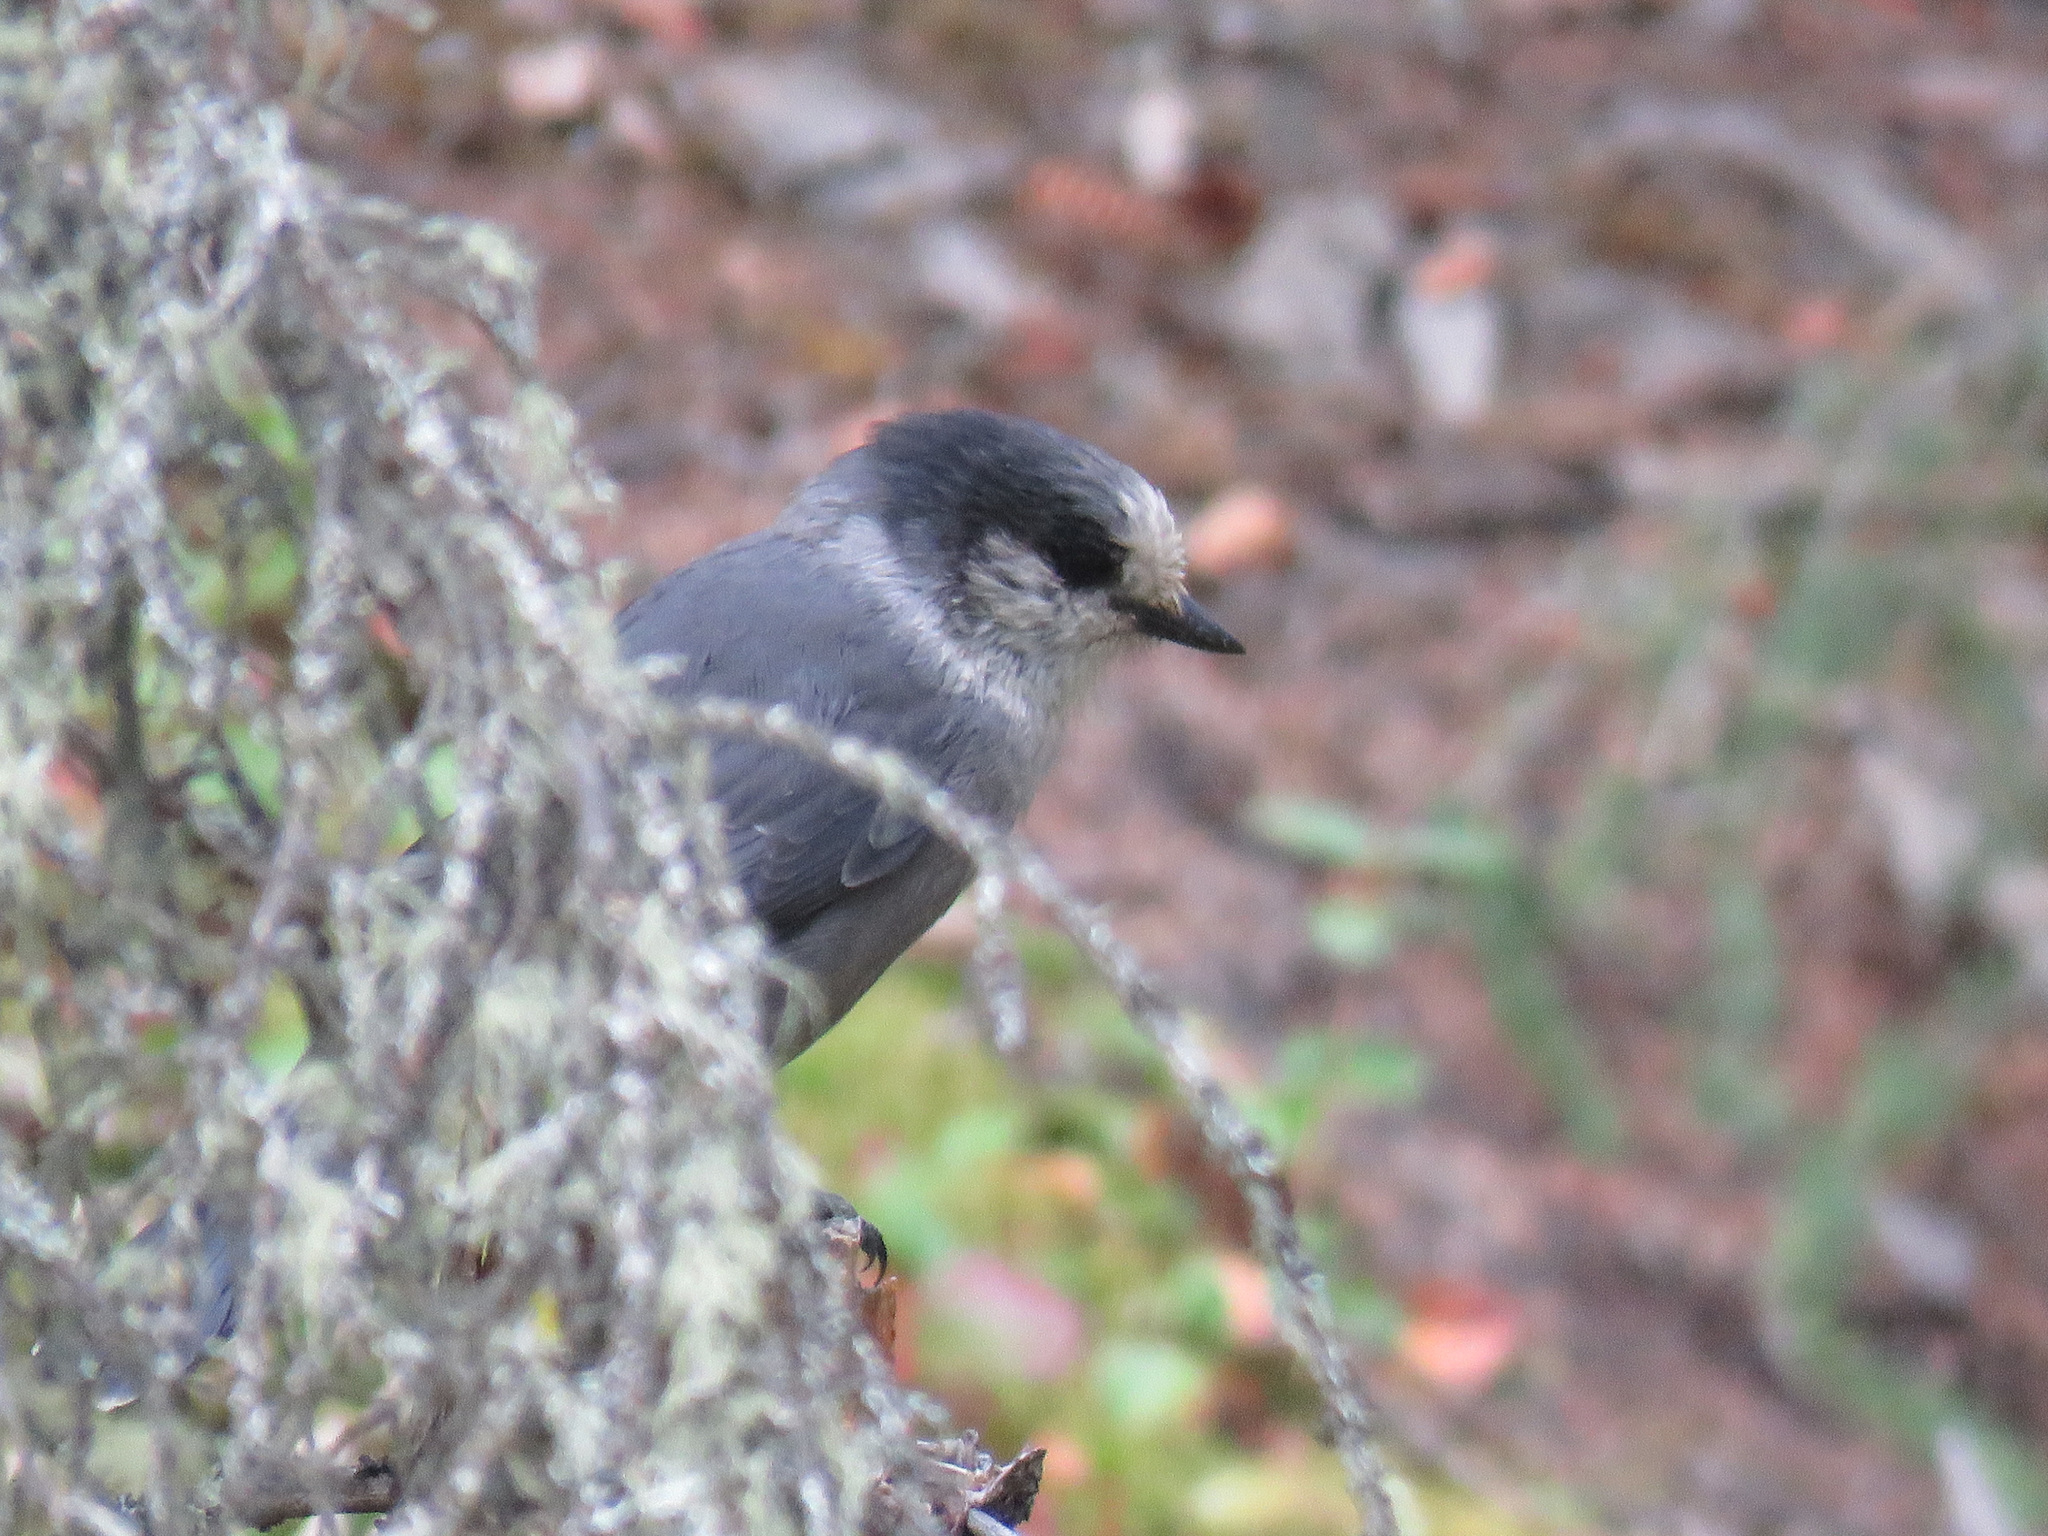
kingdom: Animalia
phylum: Chordata
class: Aves
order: Passeriformes
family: Corvidae
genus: Perisoreus
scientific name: Perisoreus canadensis
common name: Gray jay
